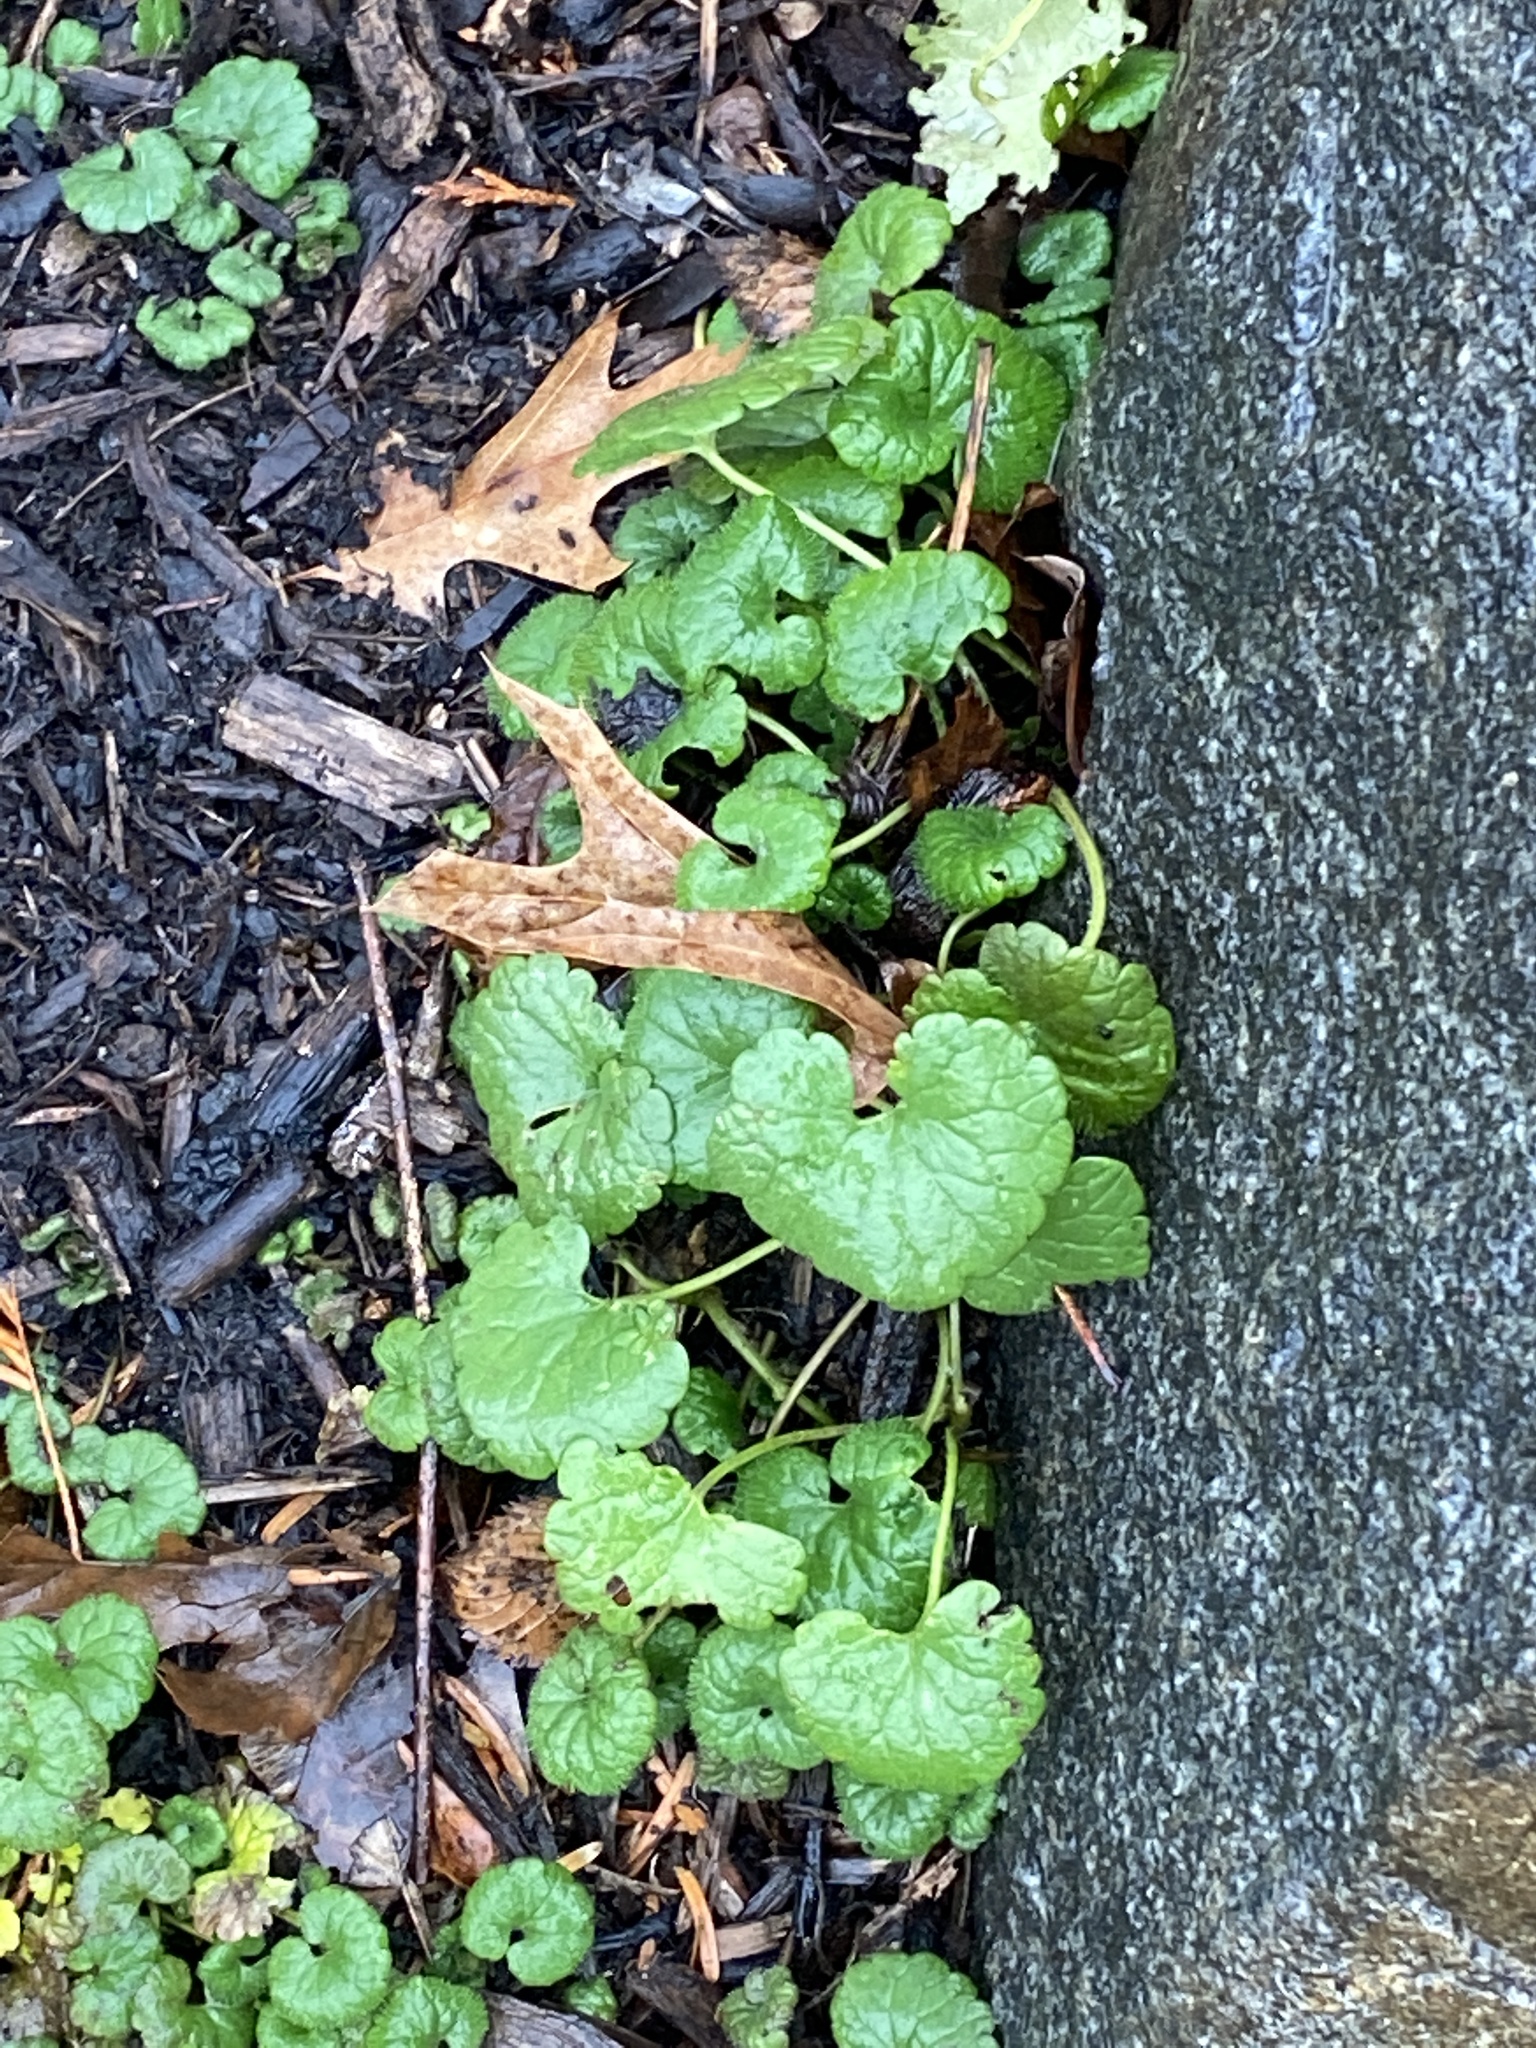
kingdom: Plantae
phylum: Tracheophyta
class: Magnoliopsida
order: Lamiales
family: Lamiaceae
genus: Glechoma
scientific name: Glechoma hederacea
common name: Ground ivy
